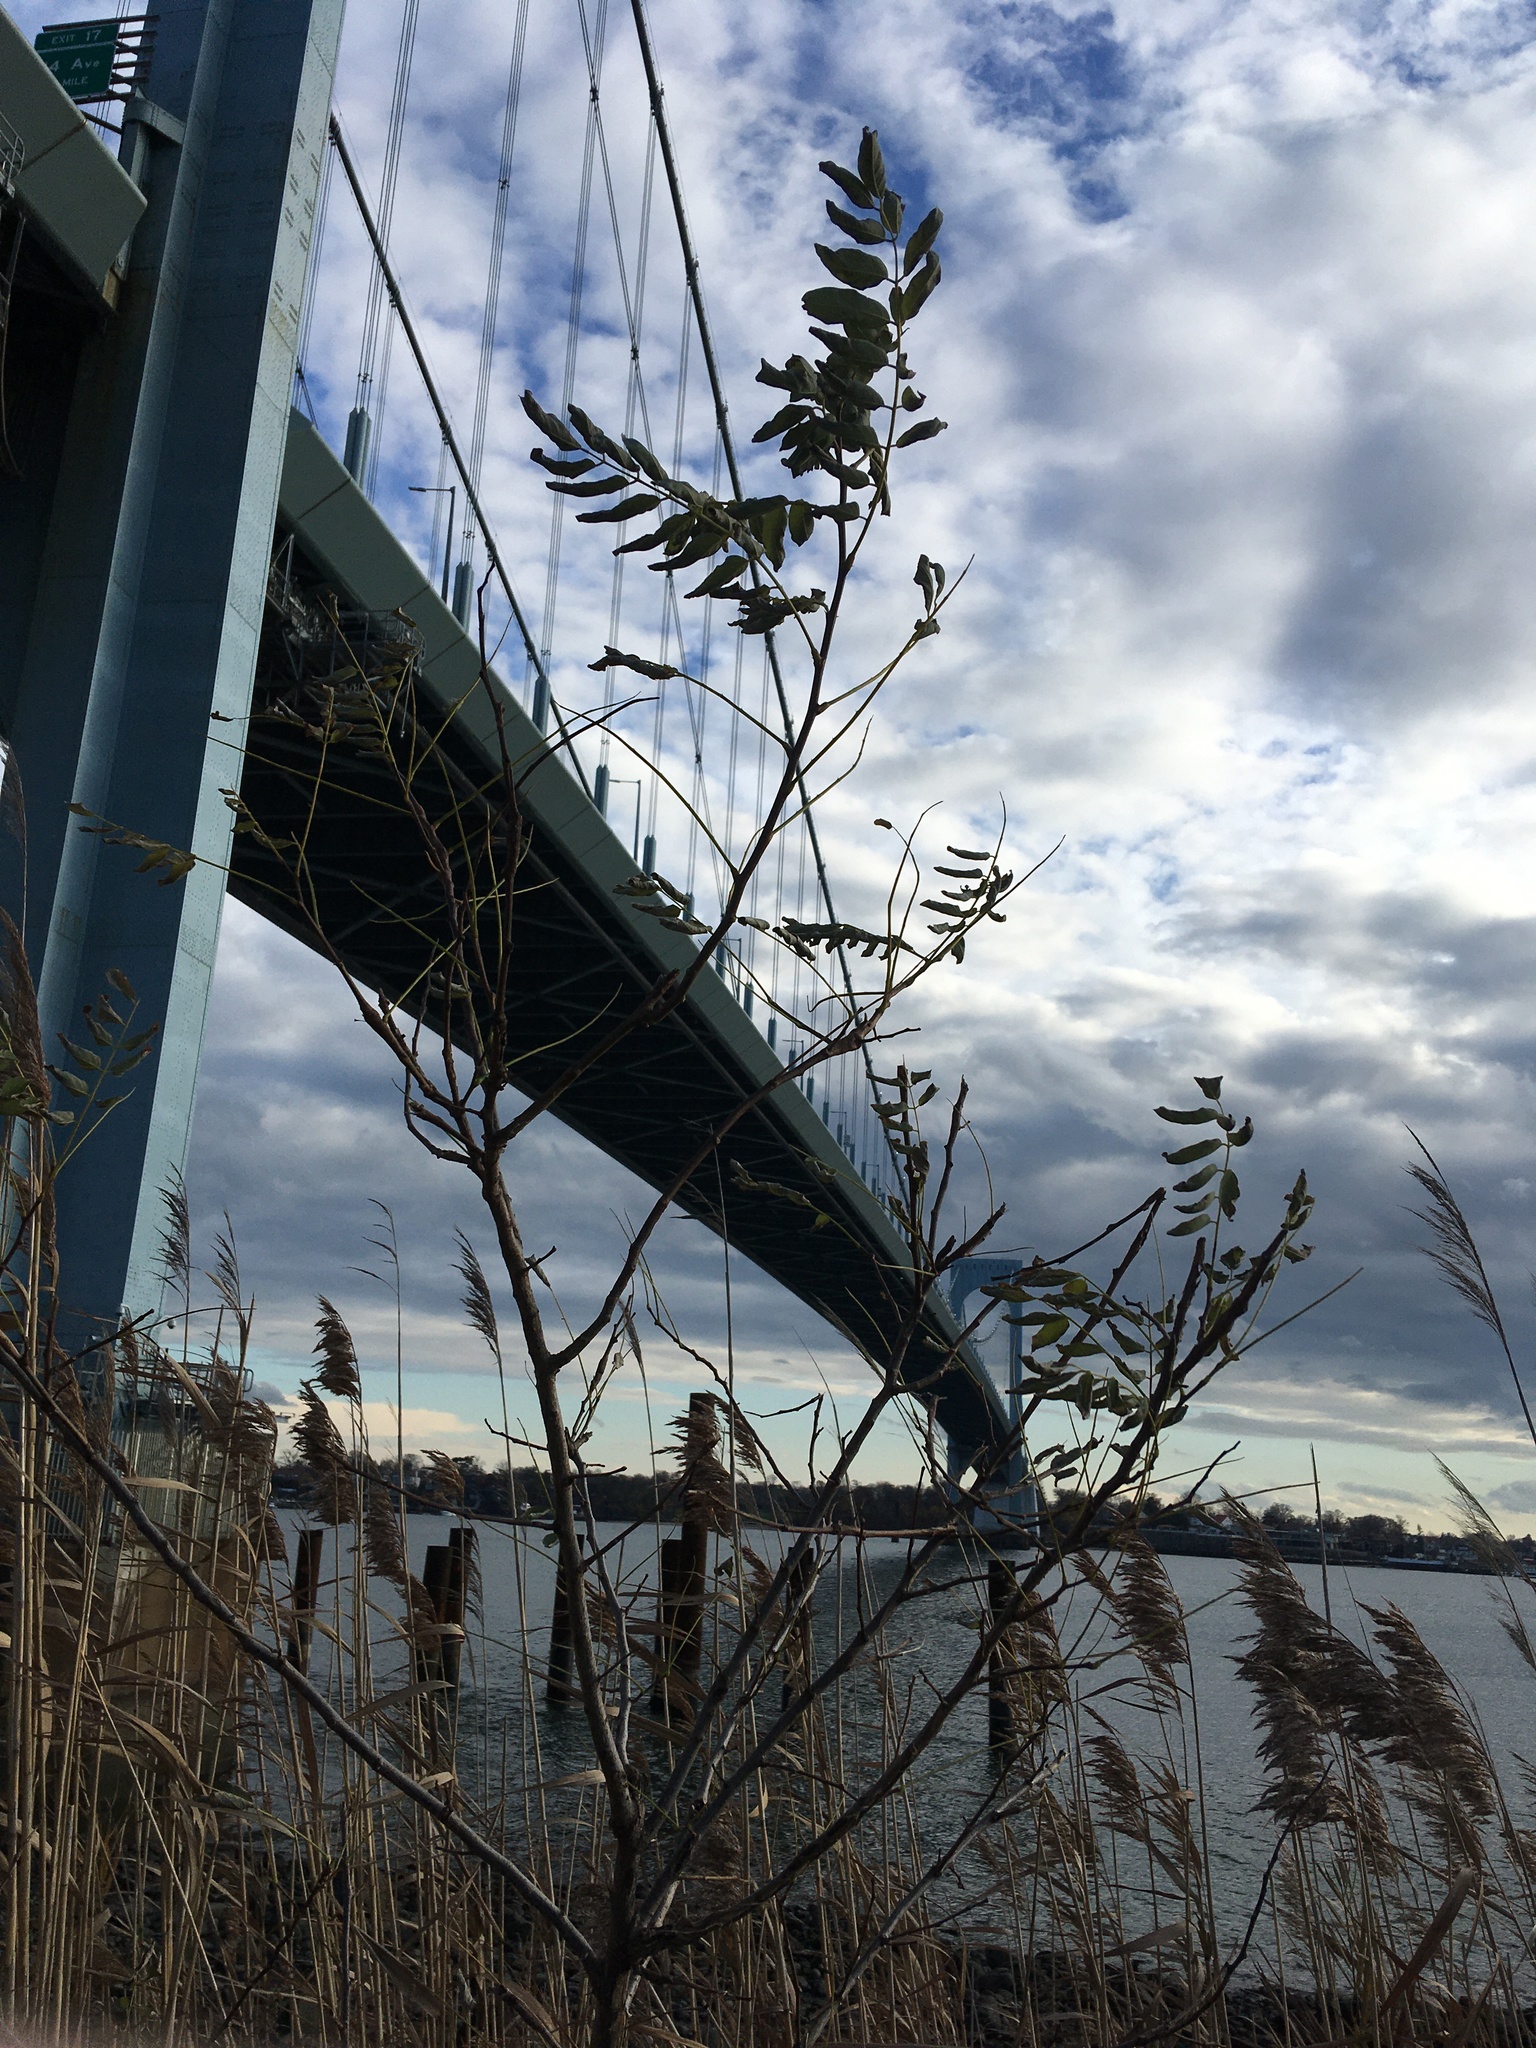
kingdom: Plantae
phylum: Tracheophyta
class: Magnoliopsida
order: Fabales
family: Fabaceae
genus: Robinia
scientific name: Robinia pseudoacacia
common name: Black locust
